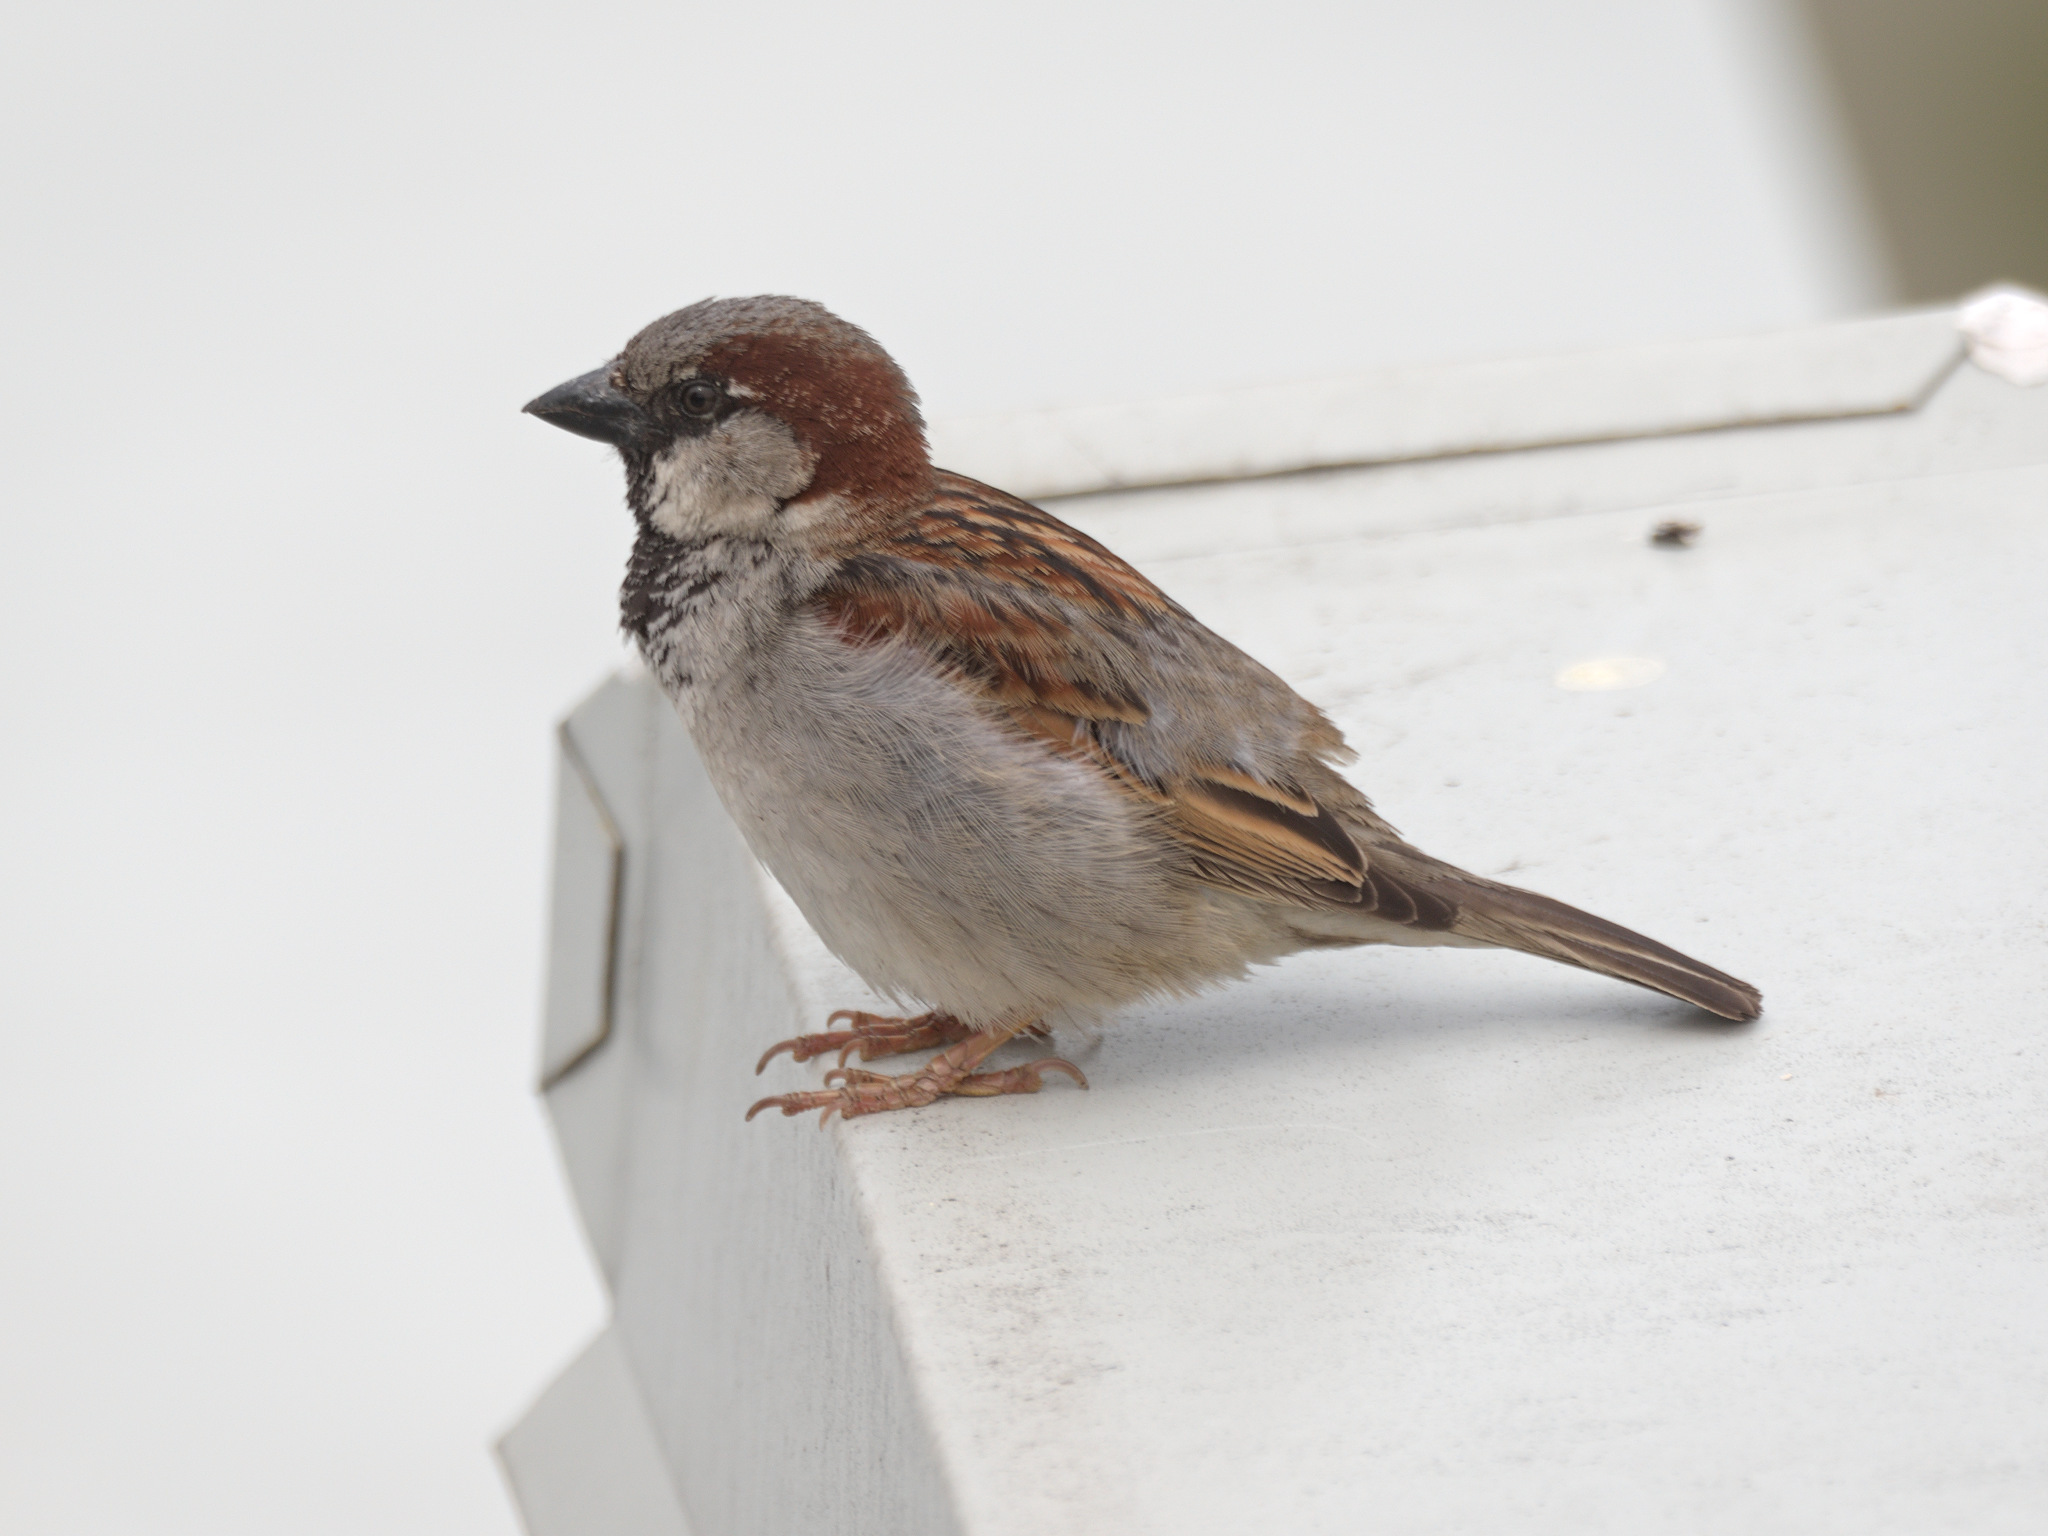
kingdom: Animalia
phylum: Chordata
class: Aves
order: Passeriformes
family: Passeridae
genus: Passer
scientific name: Passer domesticus
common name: House sparrow
